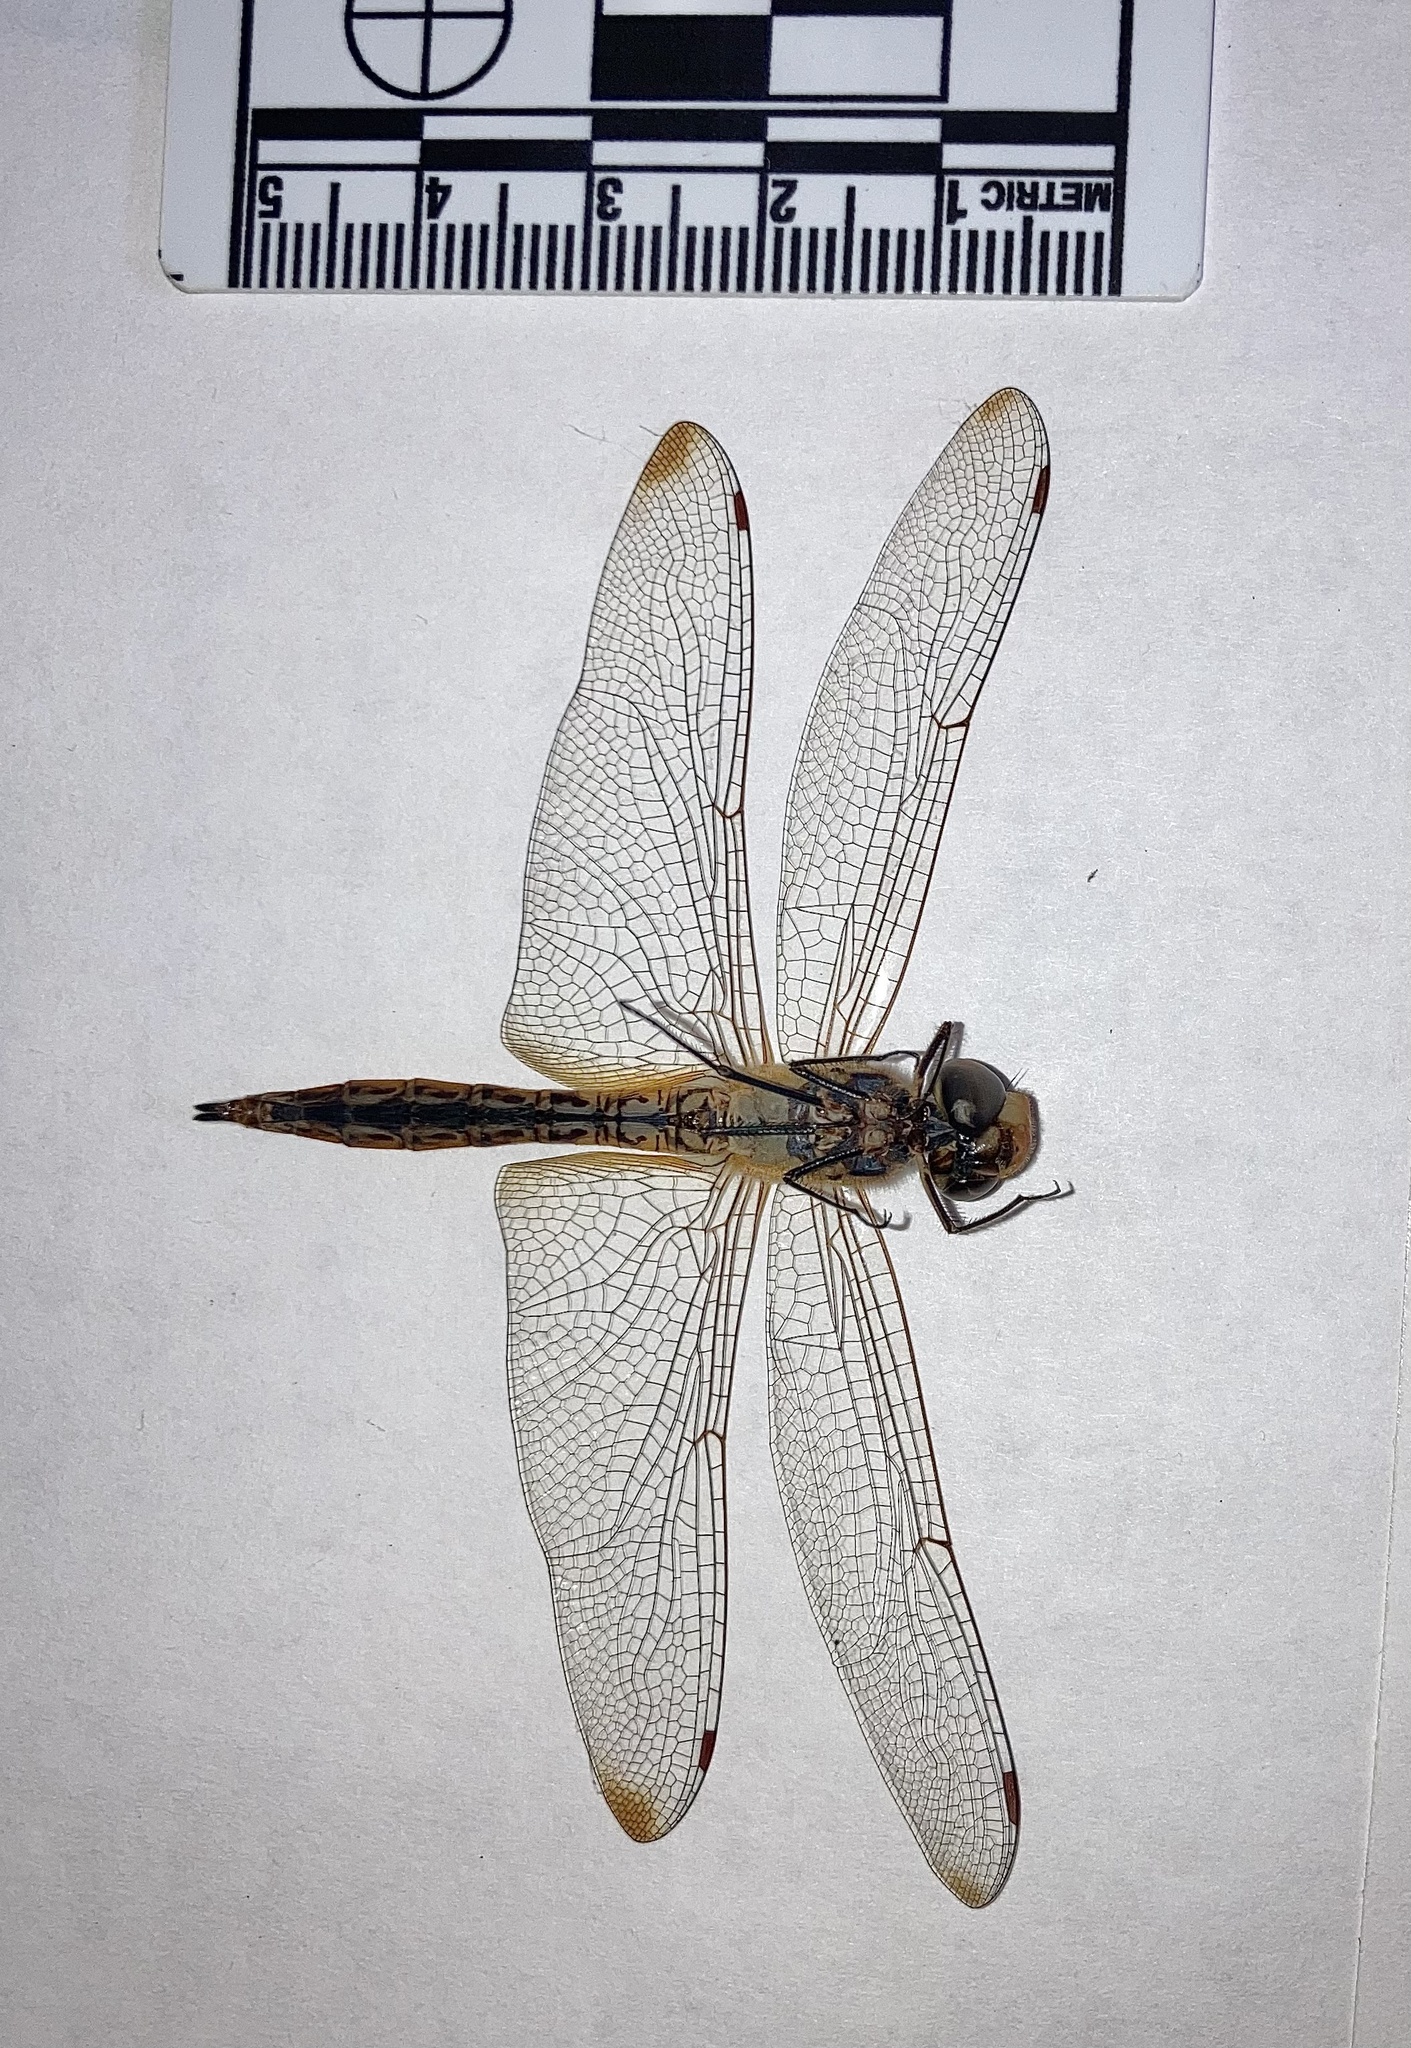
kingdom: Animalia
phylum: Arthropoda
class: Insecta
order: Odonata
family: Libellulidae
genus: Pantala
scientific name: Pantala flavescens
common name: Wandering glider
